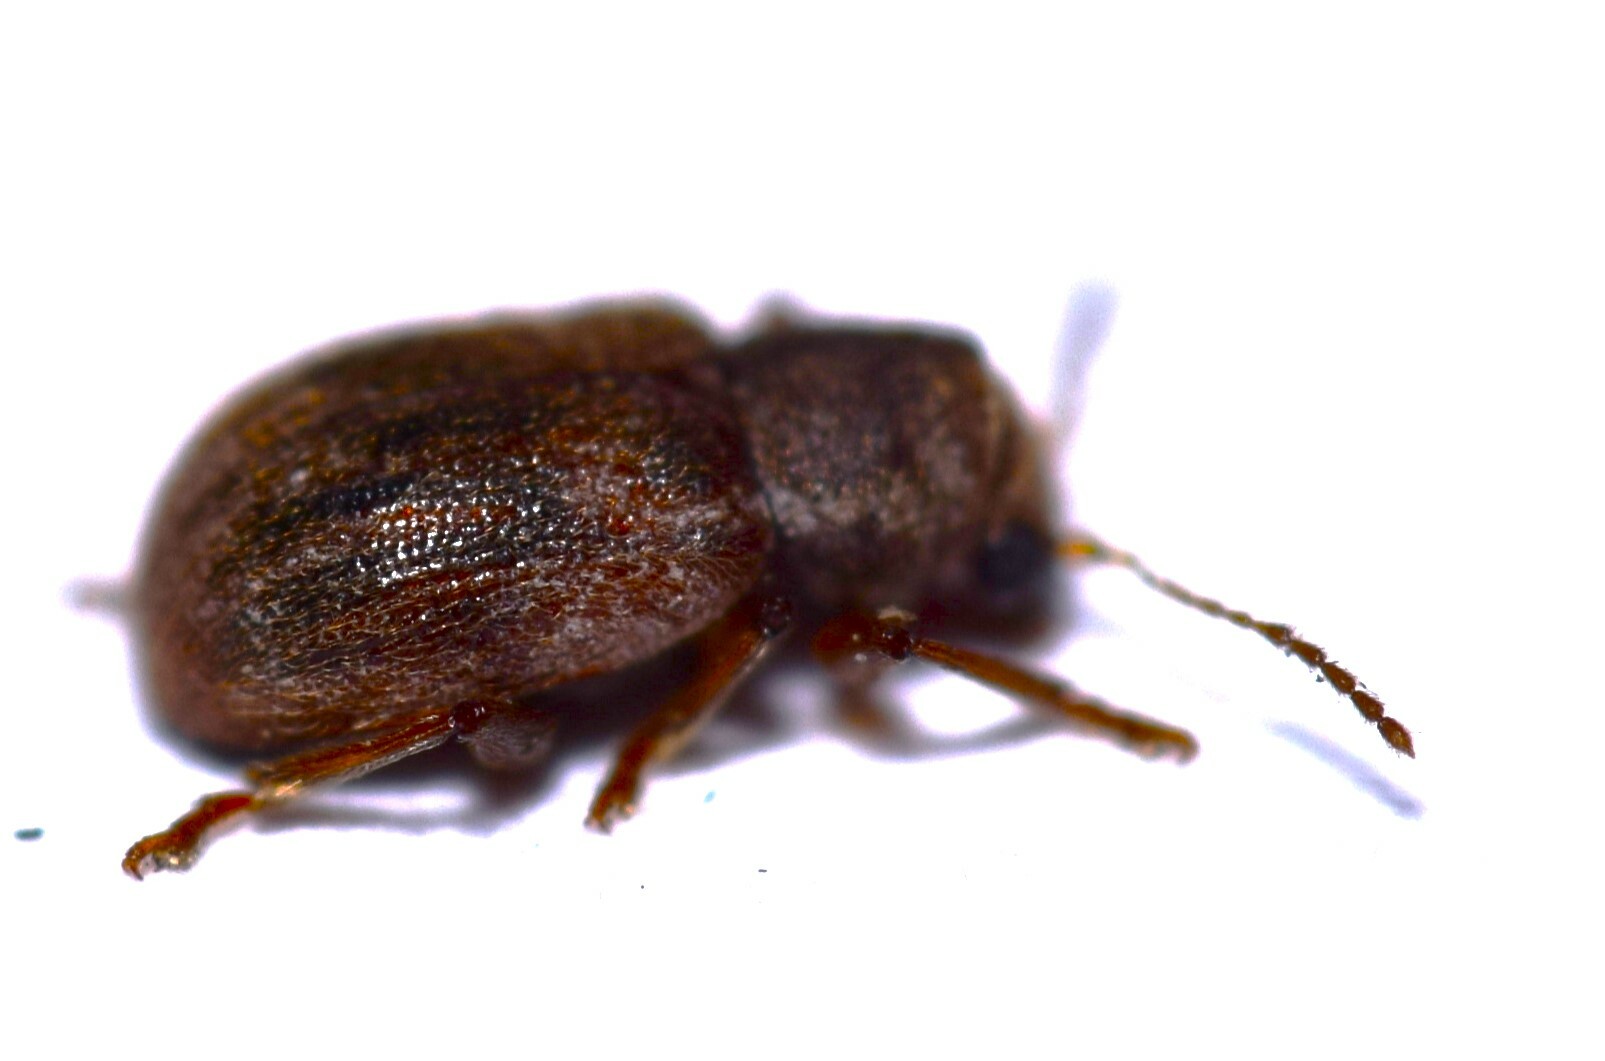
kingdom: Animalia
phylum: Arthropoda
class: Insecta
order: Coleoptera
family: Chrysomelidae
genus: Xanthonia
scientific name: Xanthonia hirsuta
